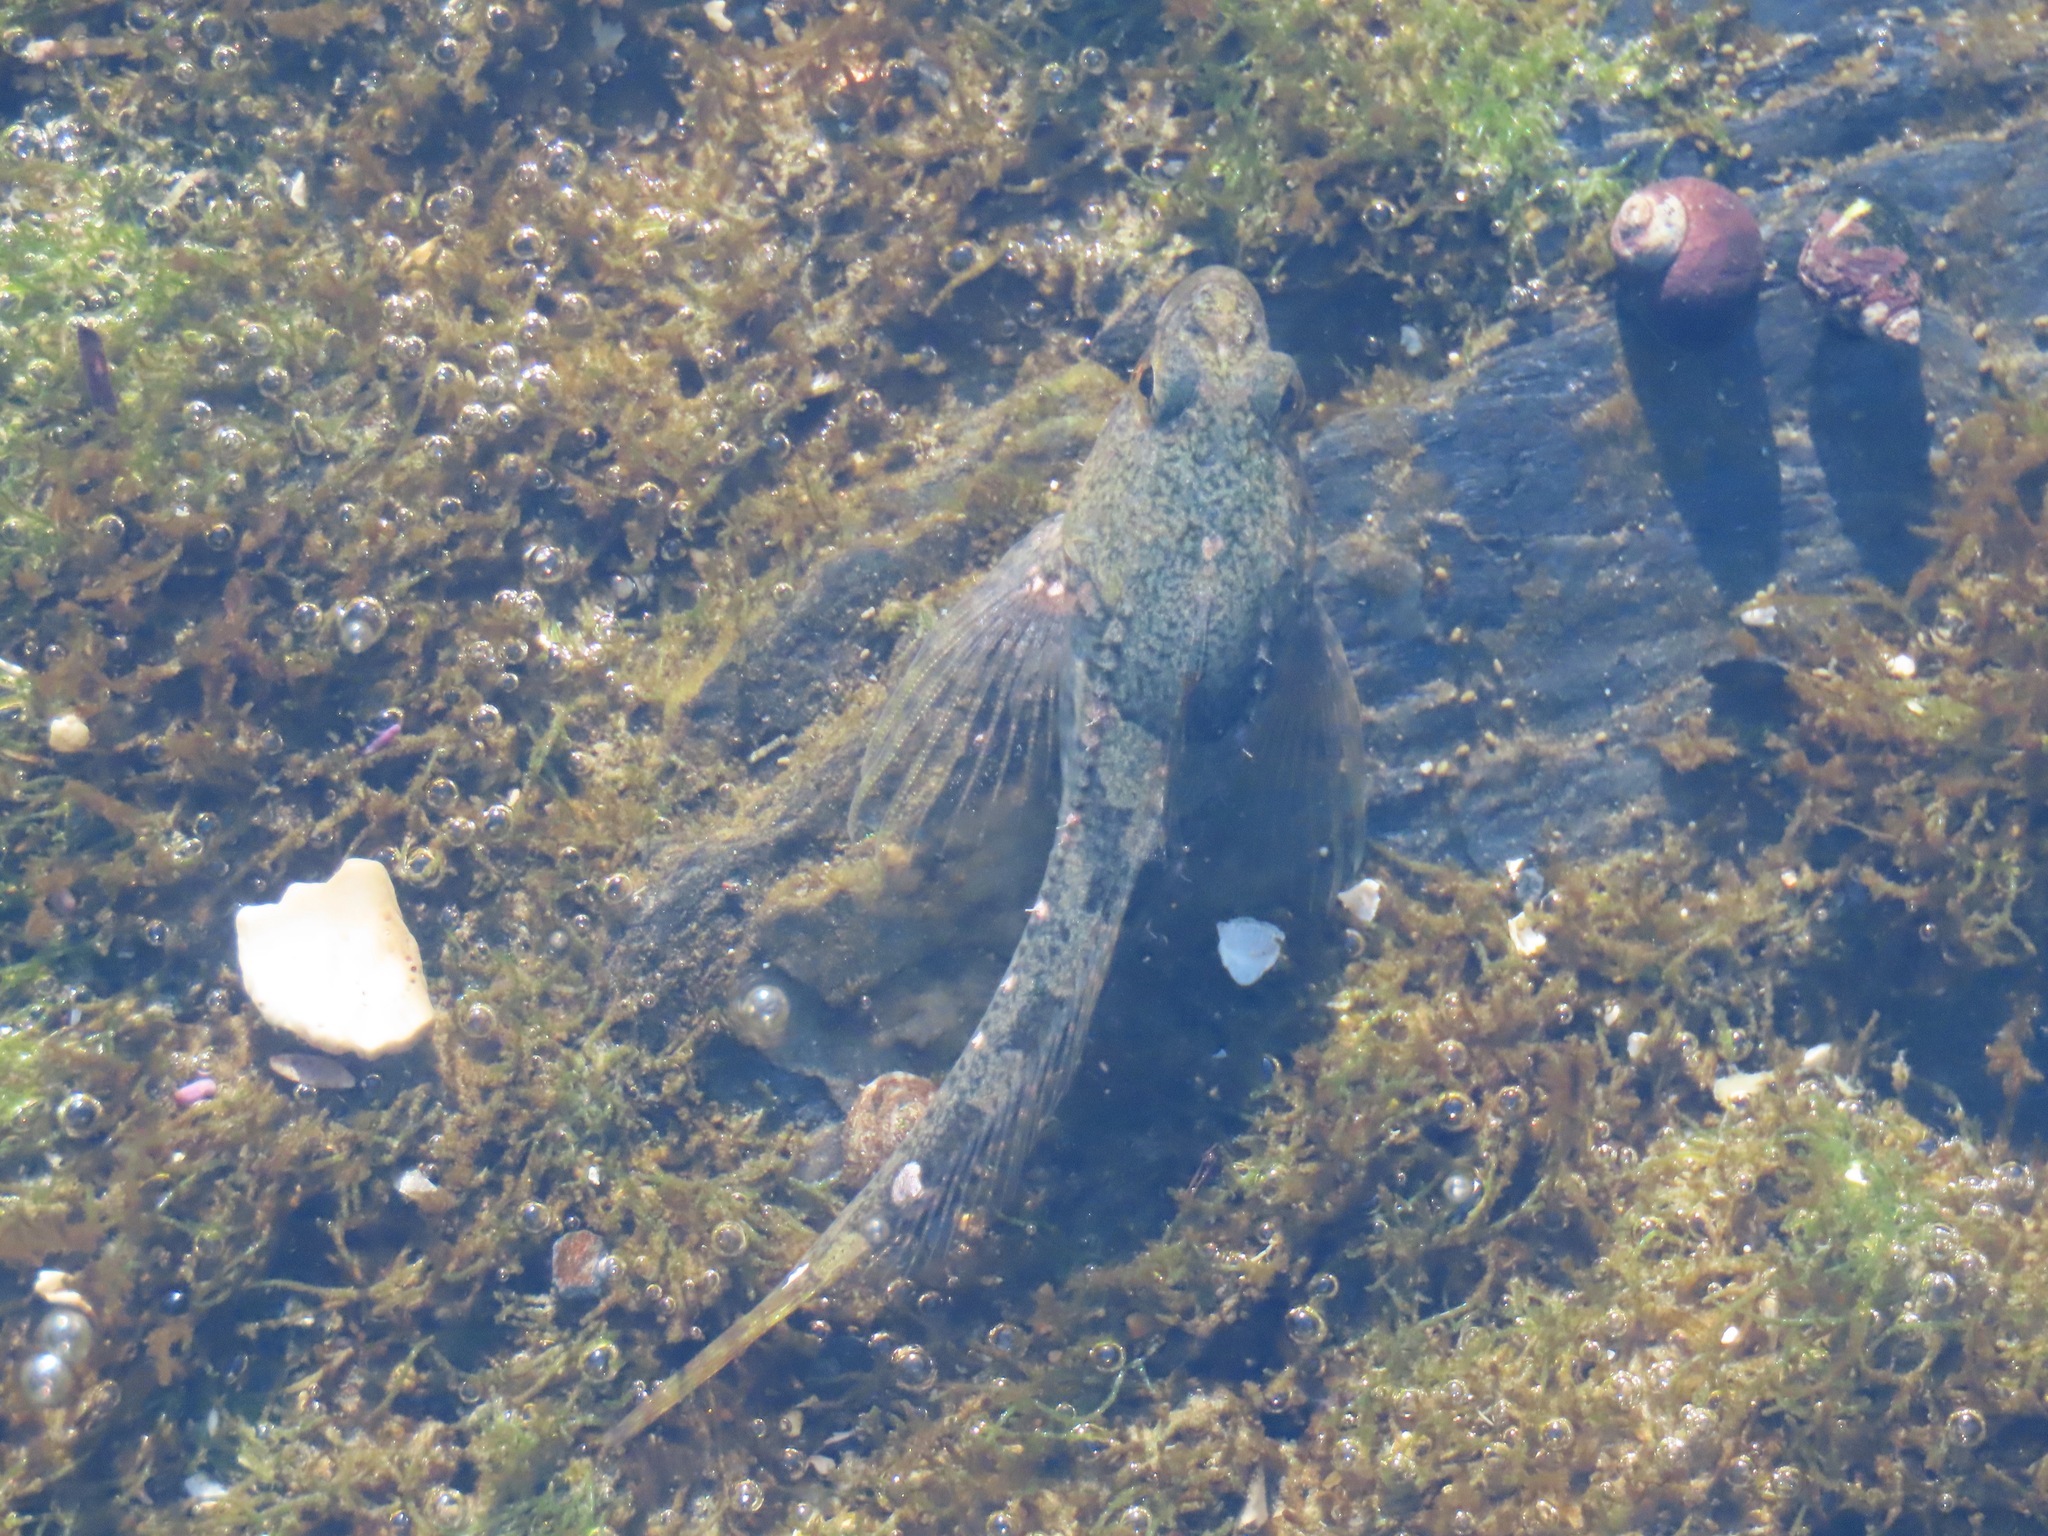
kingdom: Animalia
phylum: Chordata
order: Scorpaeniformes
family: Cottidae
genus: Oligocottus
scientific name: Oligocottus maculosus
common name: Tidepool sculpin
